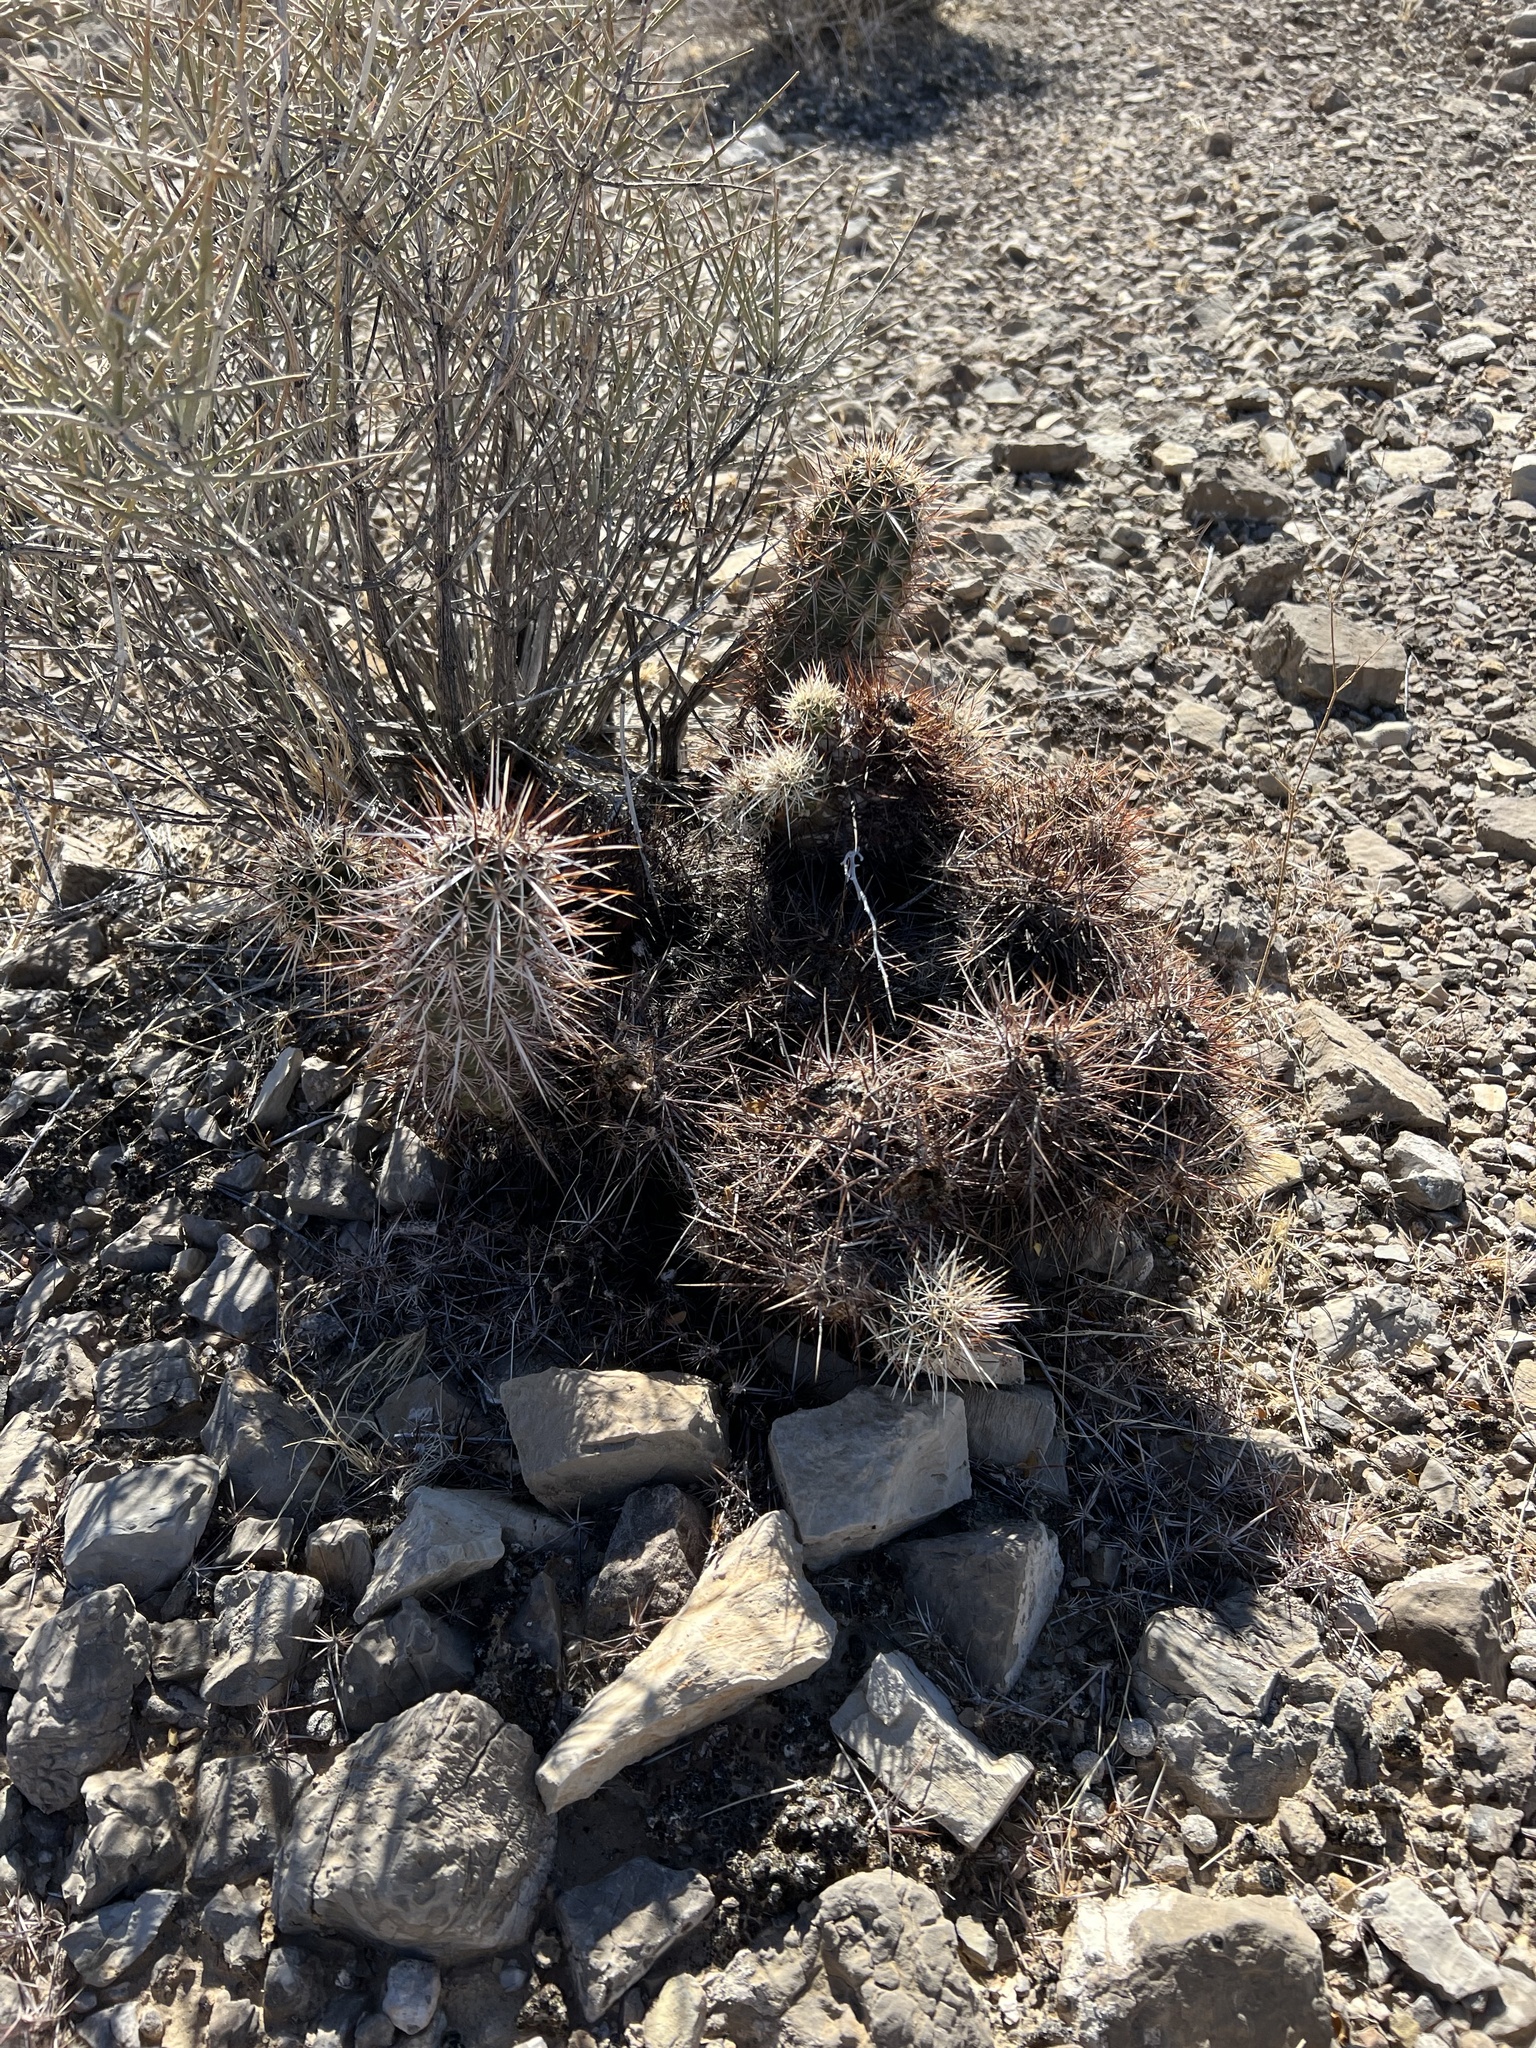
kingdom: Plantae
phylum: Tracheophyta
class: Magnoliopsida
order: Caryophyllales
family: Cactaceae
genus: Echinocereus
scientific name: Echinocereus engelmannii
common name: Engelmann's hedgehog cactus
